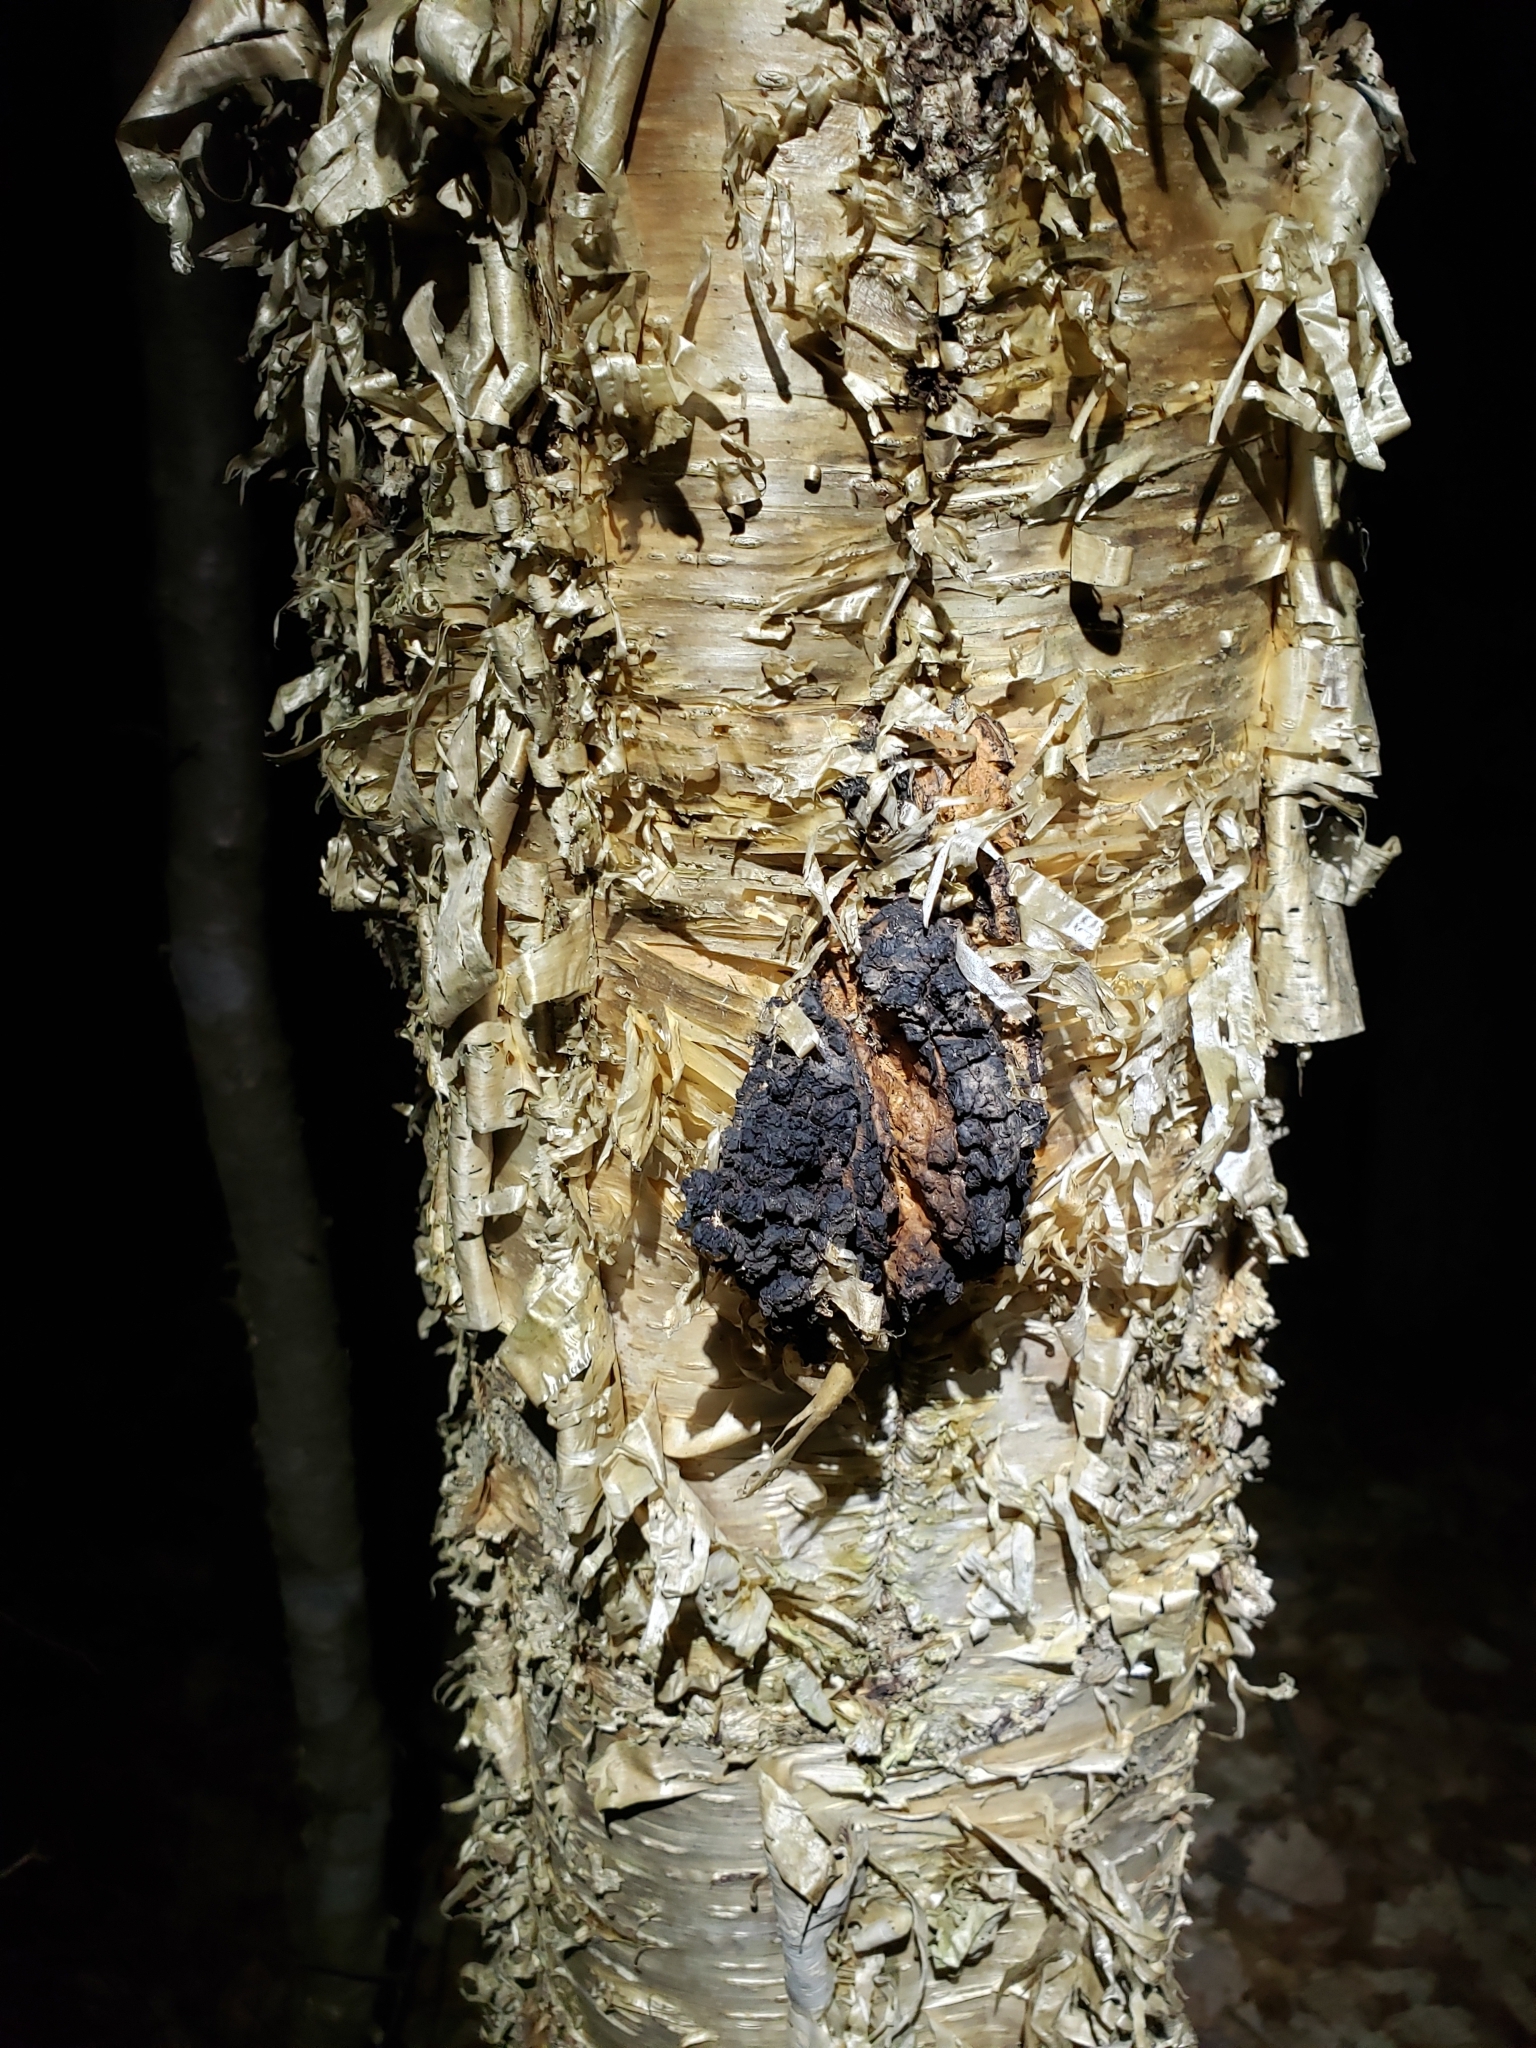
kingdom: Fungi
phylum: Basidiomycota
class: Agaricomycetes
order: Hymenochaetales
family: Hymenochaetaceae
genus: Inonotus
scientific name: Inonotus obliquus
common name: Chaga
